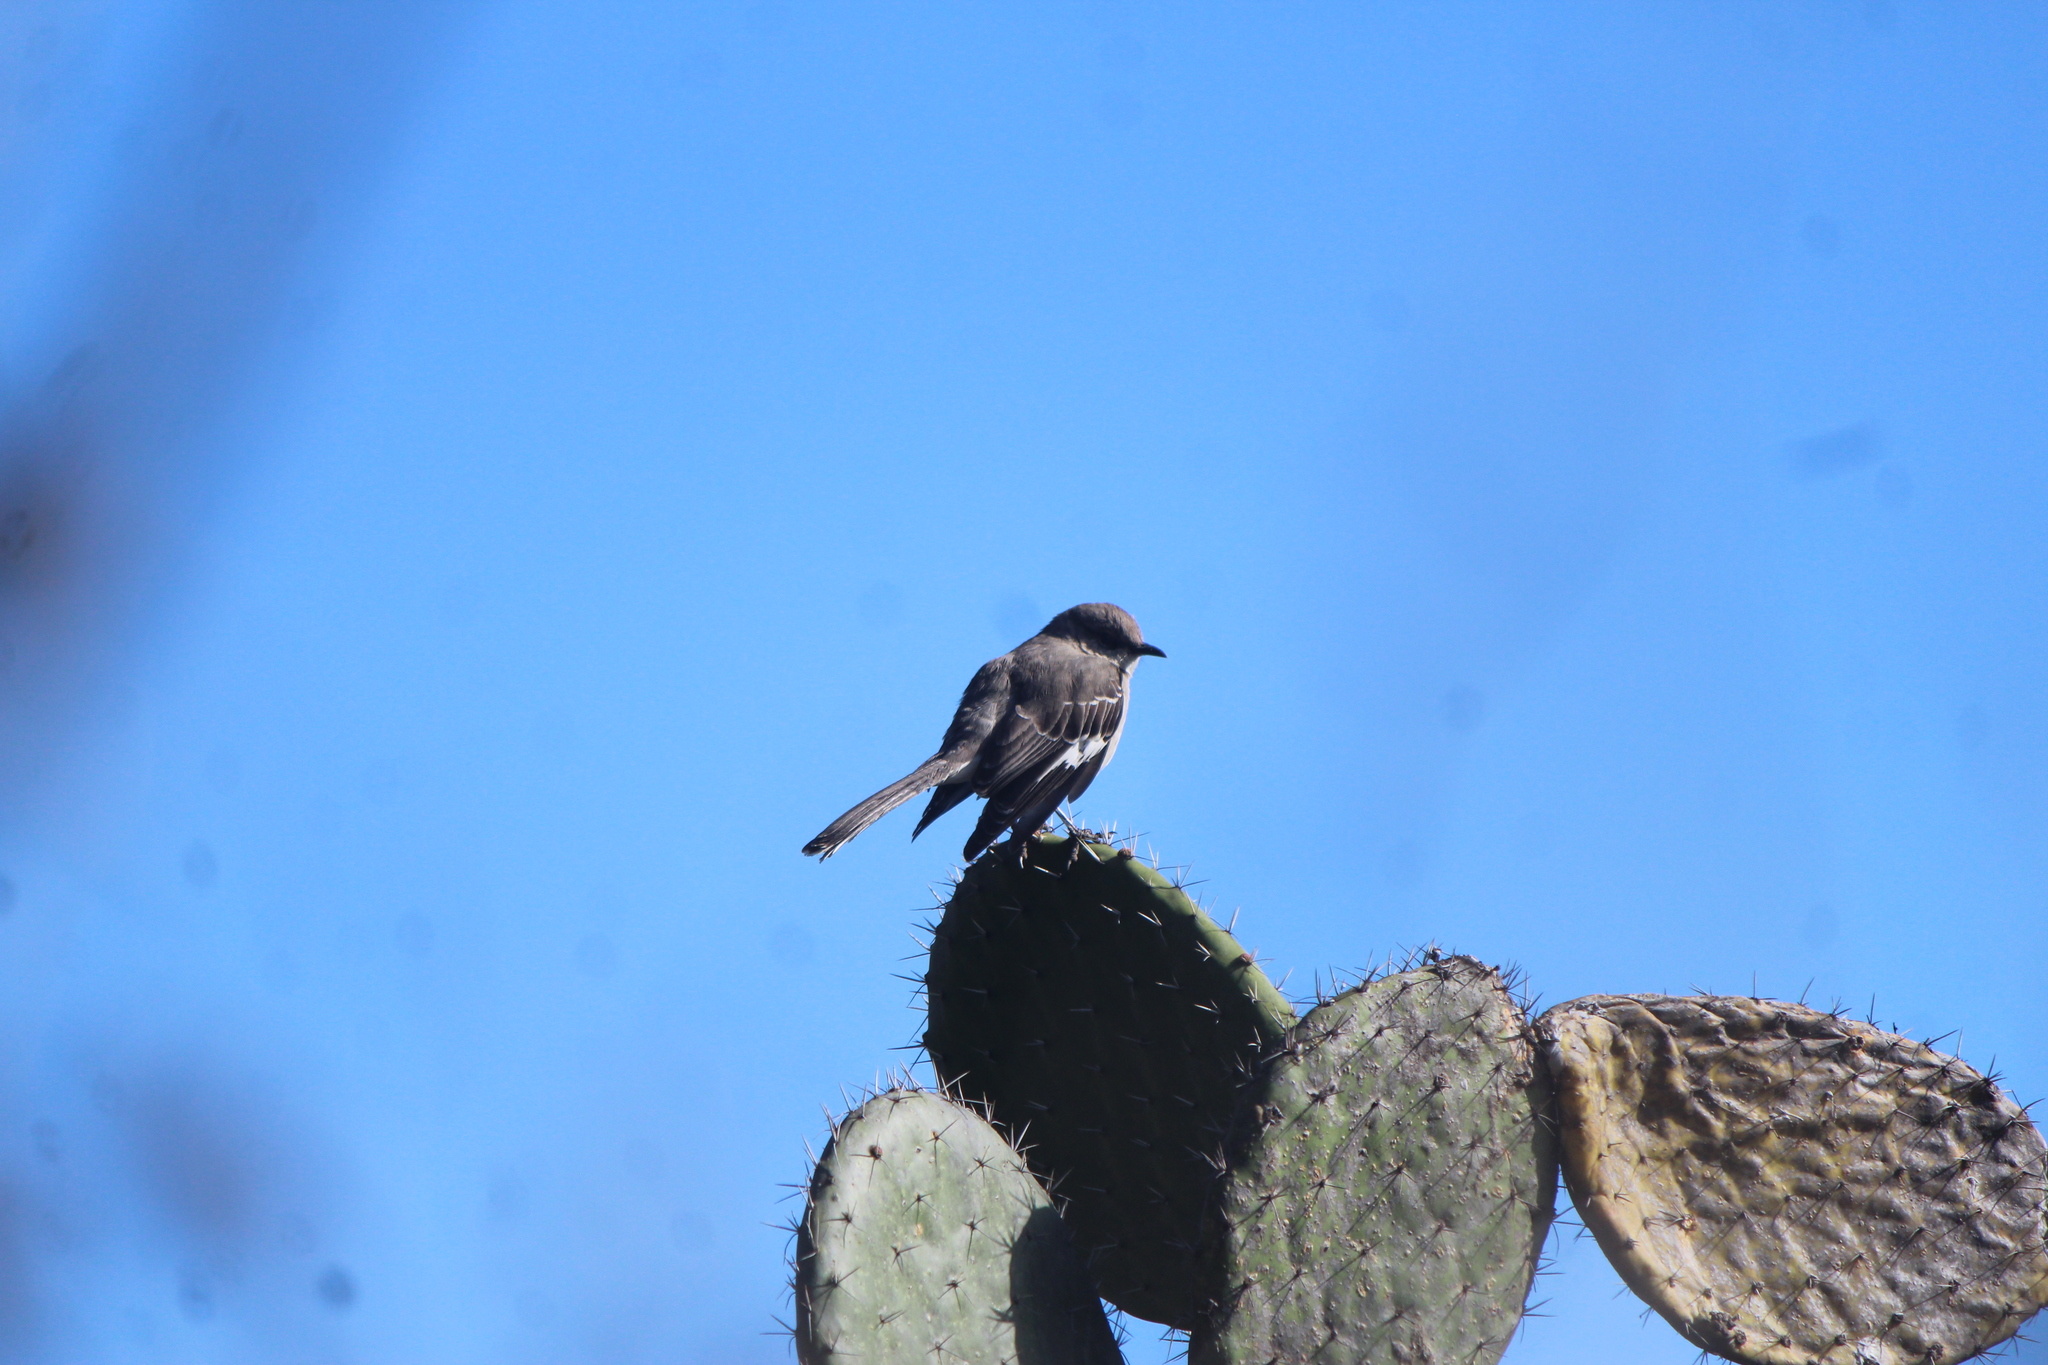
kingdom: Animalia
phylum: Chordata
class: Aves
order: Passeriformes
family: Mimidae
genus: Mimus
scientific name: Mimus polyglottos
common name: Northern mockingbird
